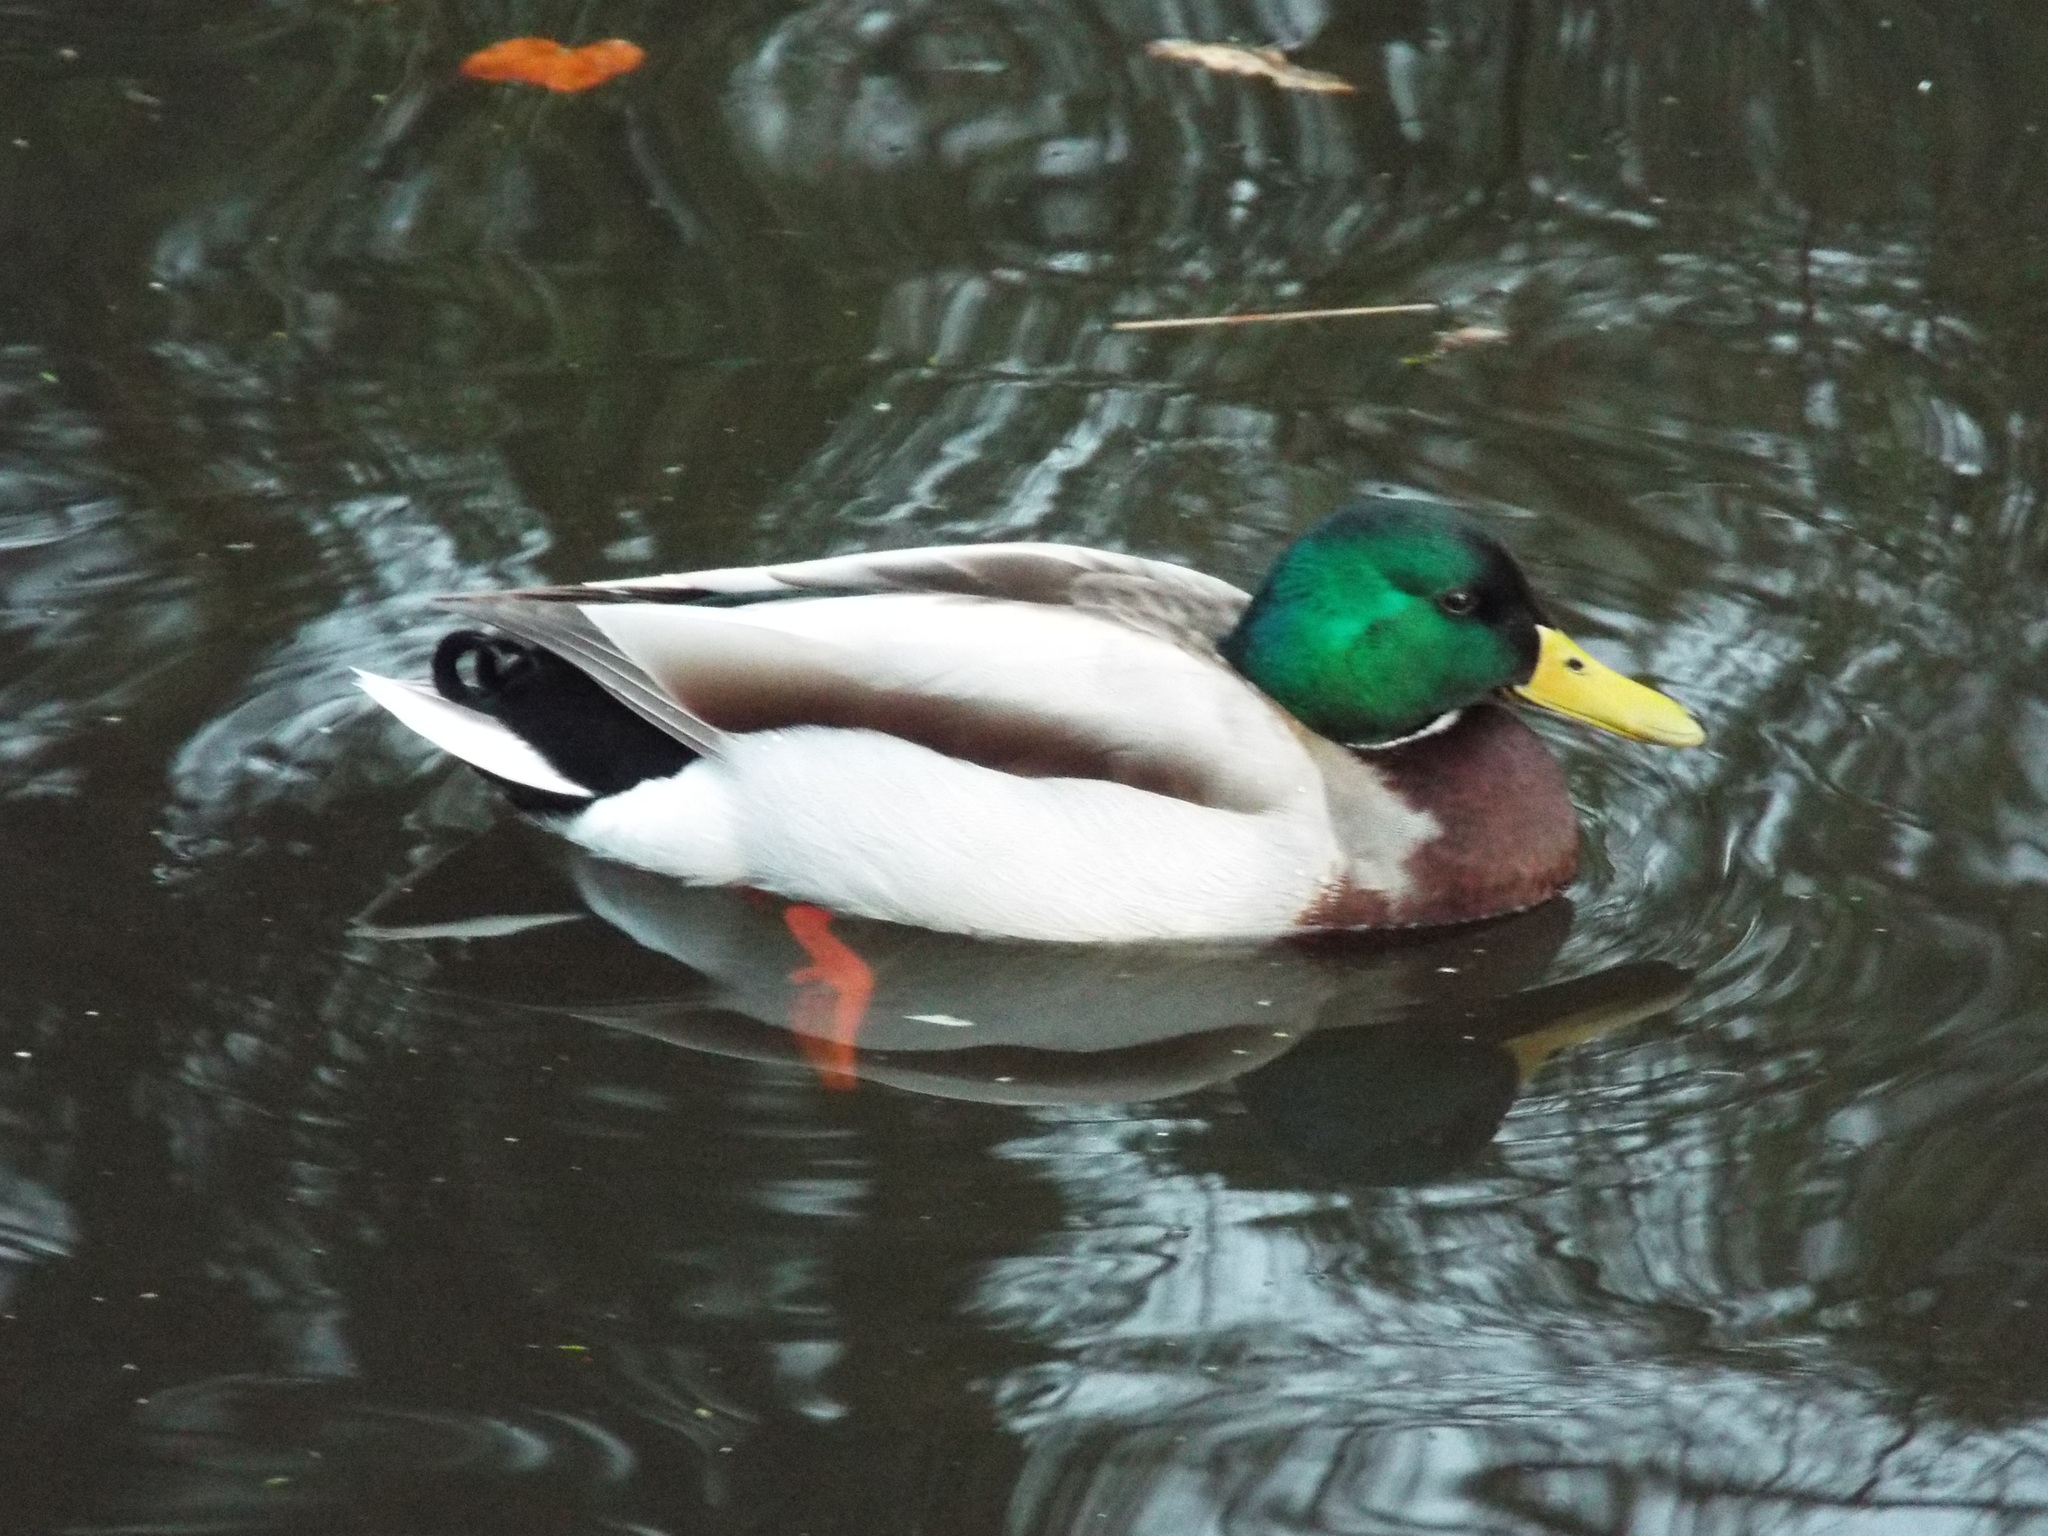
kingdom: Animalia
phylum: Chordata
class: Aves
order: Anseriformes
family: Anatidae
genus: Anas
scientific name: Anas platyrhynchos
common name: Mallard
